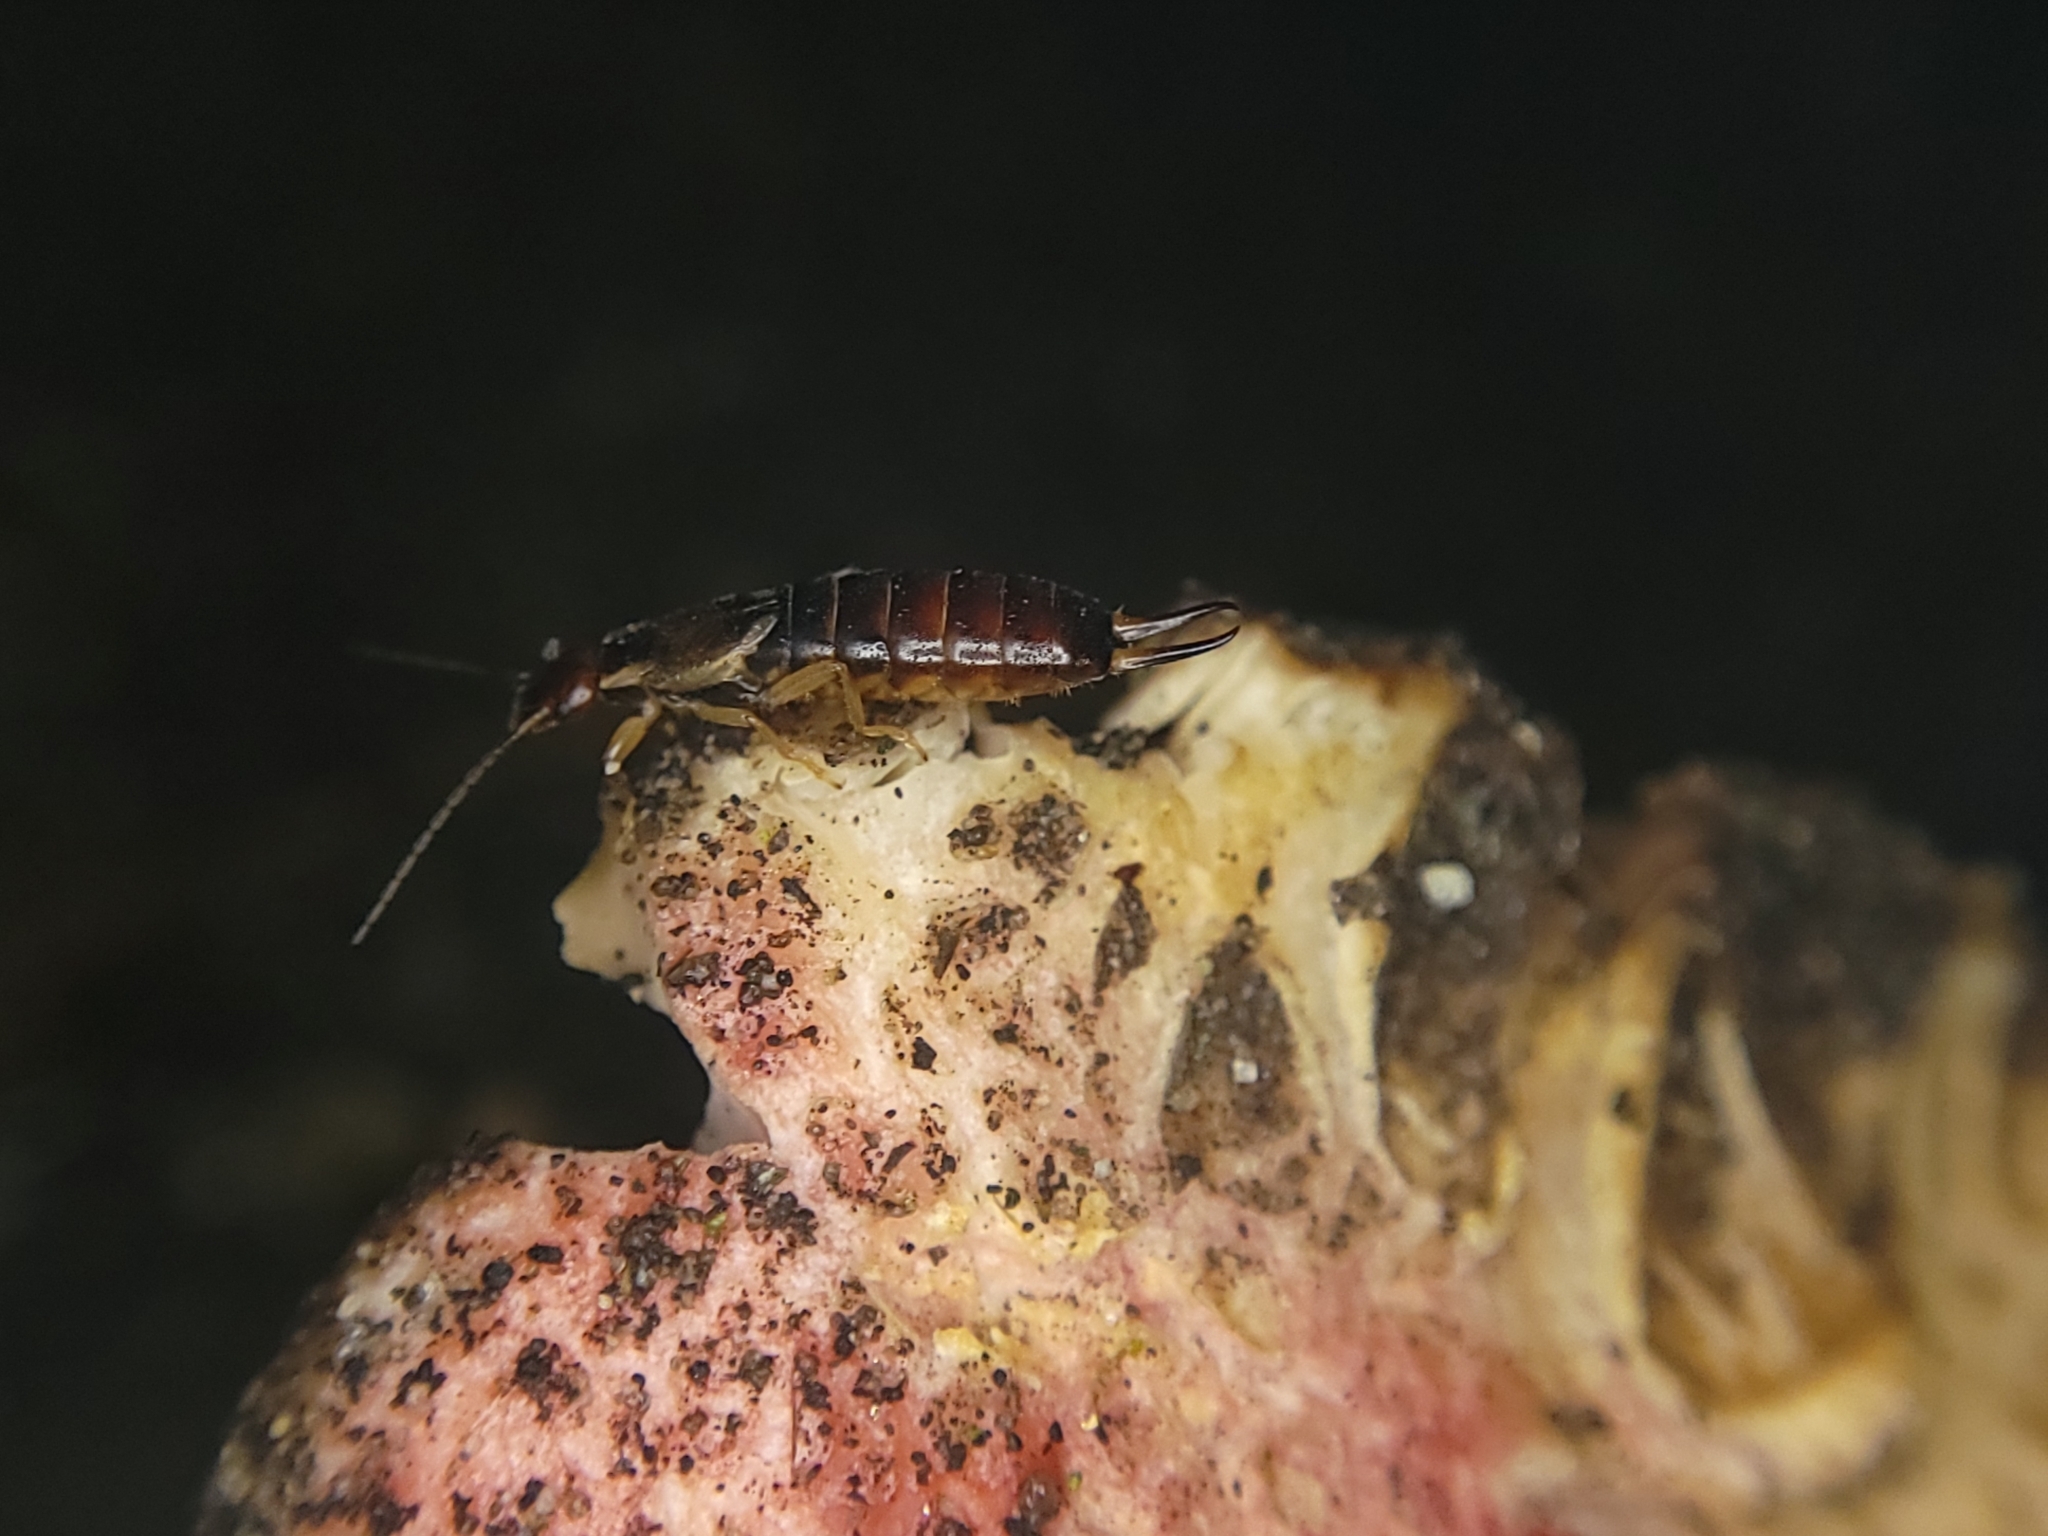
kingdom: Animalia
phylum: Arthropoda
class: Insecta
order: Dermaptera
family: Forficulidae
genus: Forficula
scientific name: Forficula dentata
